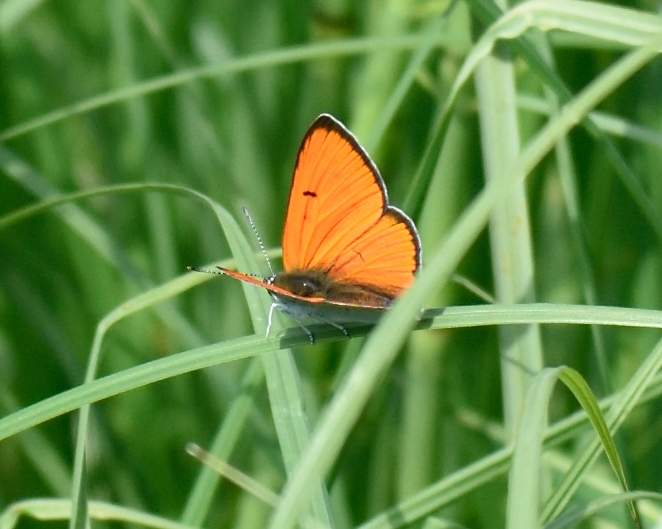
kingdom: Animalia
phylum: Arthropoda
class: Insecta
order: Lepidoptera
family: Lycaenidae
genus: Lycaena
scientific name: Lycaena dispar
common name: Large copper
